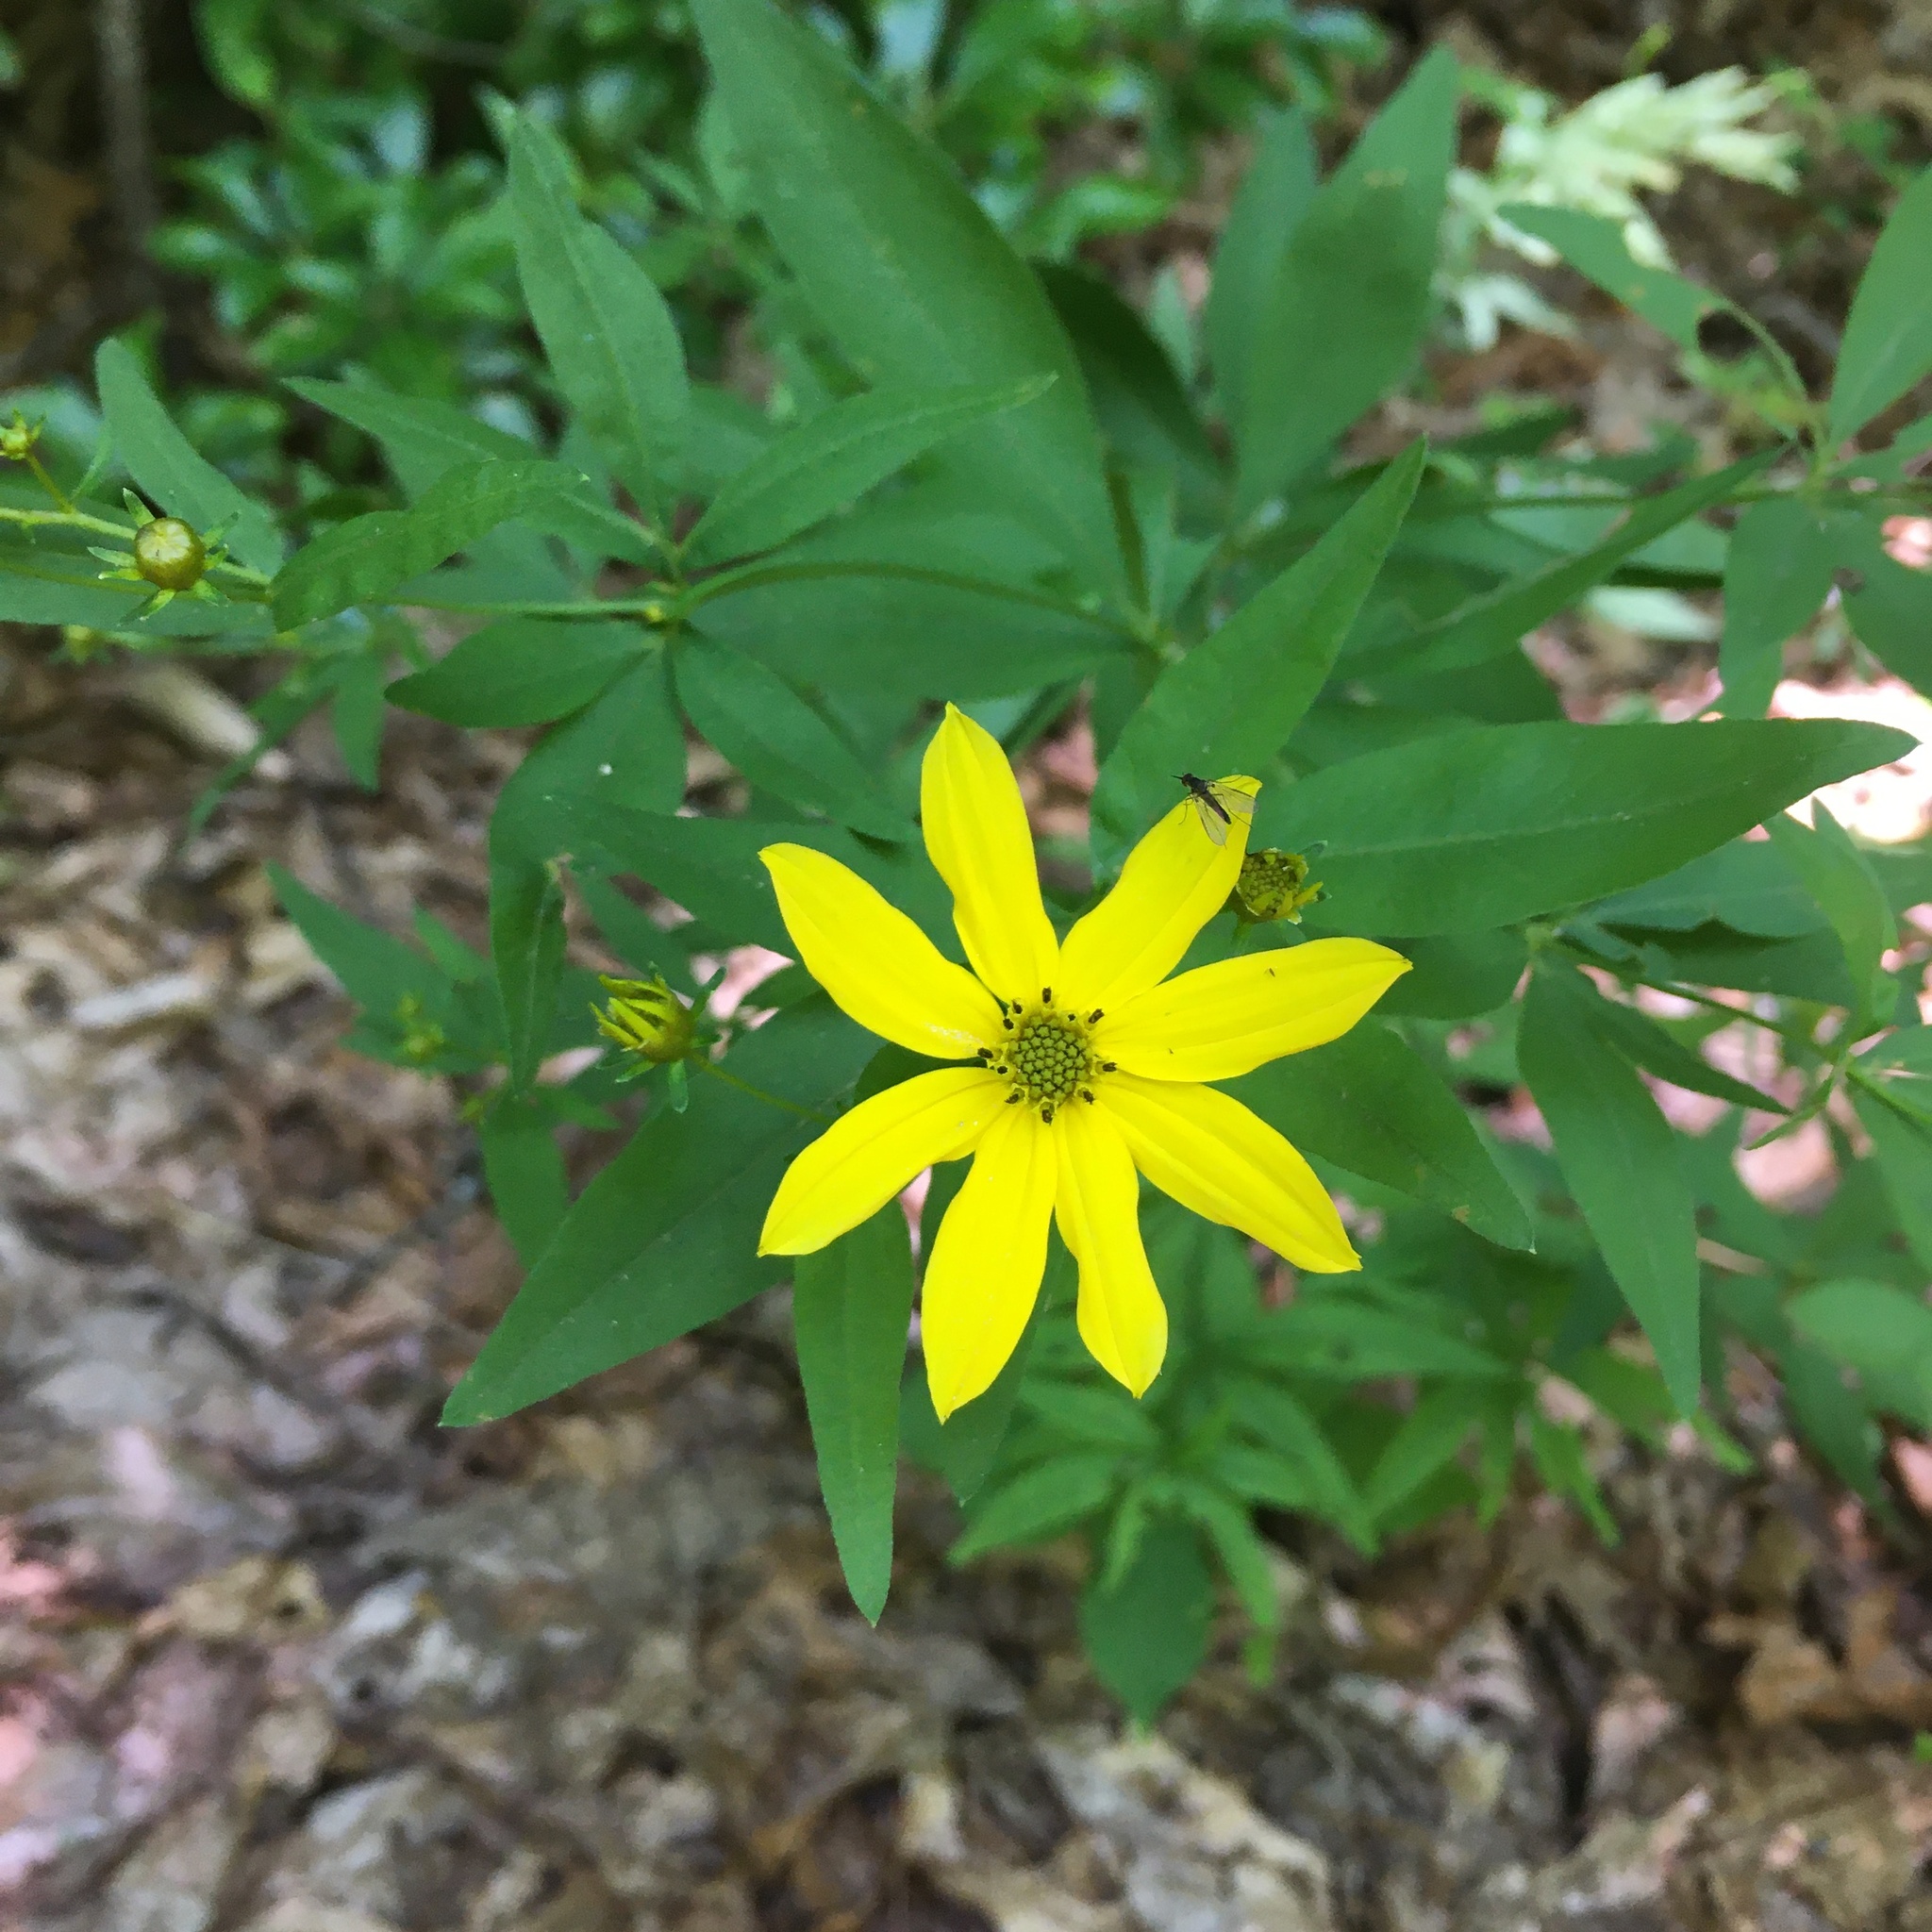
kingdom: Plantae
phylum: Tracheophyta
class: Magnoliopsida
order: Asterales
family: Asteraceae
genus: Coreopsis
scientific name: Coreopsis major
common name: Forest tickseed
